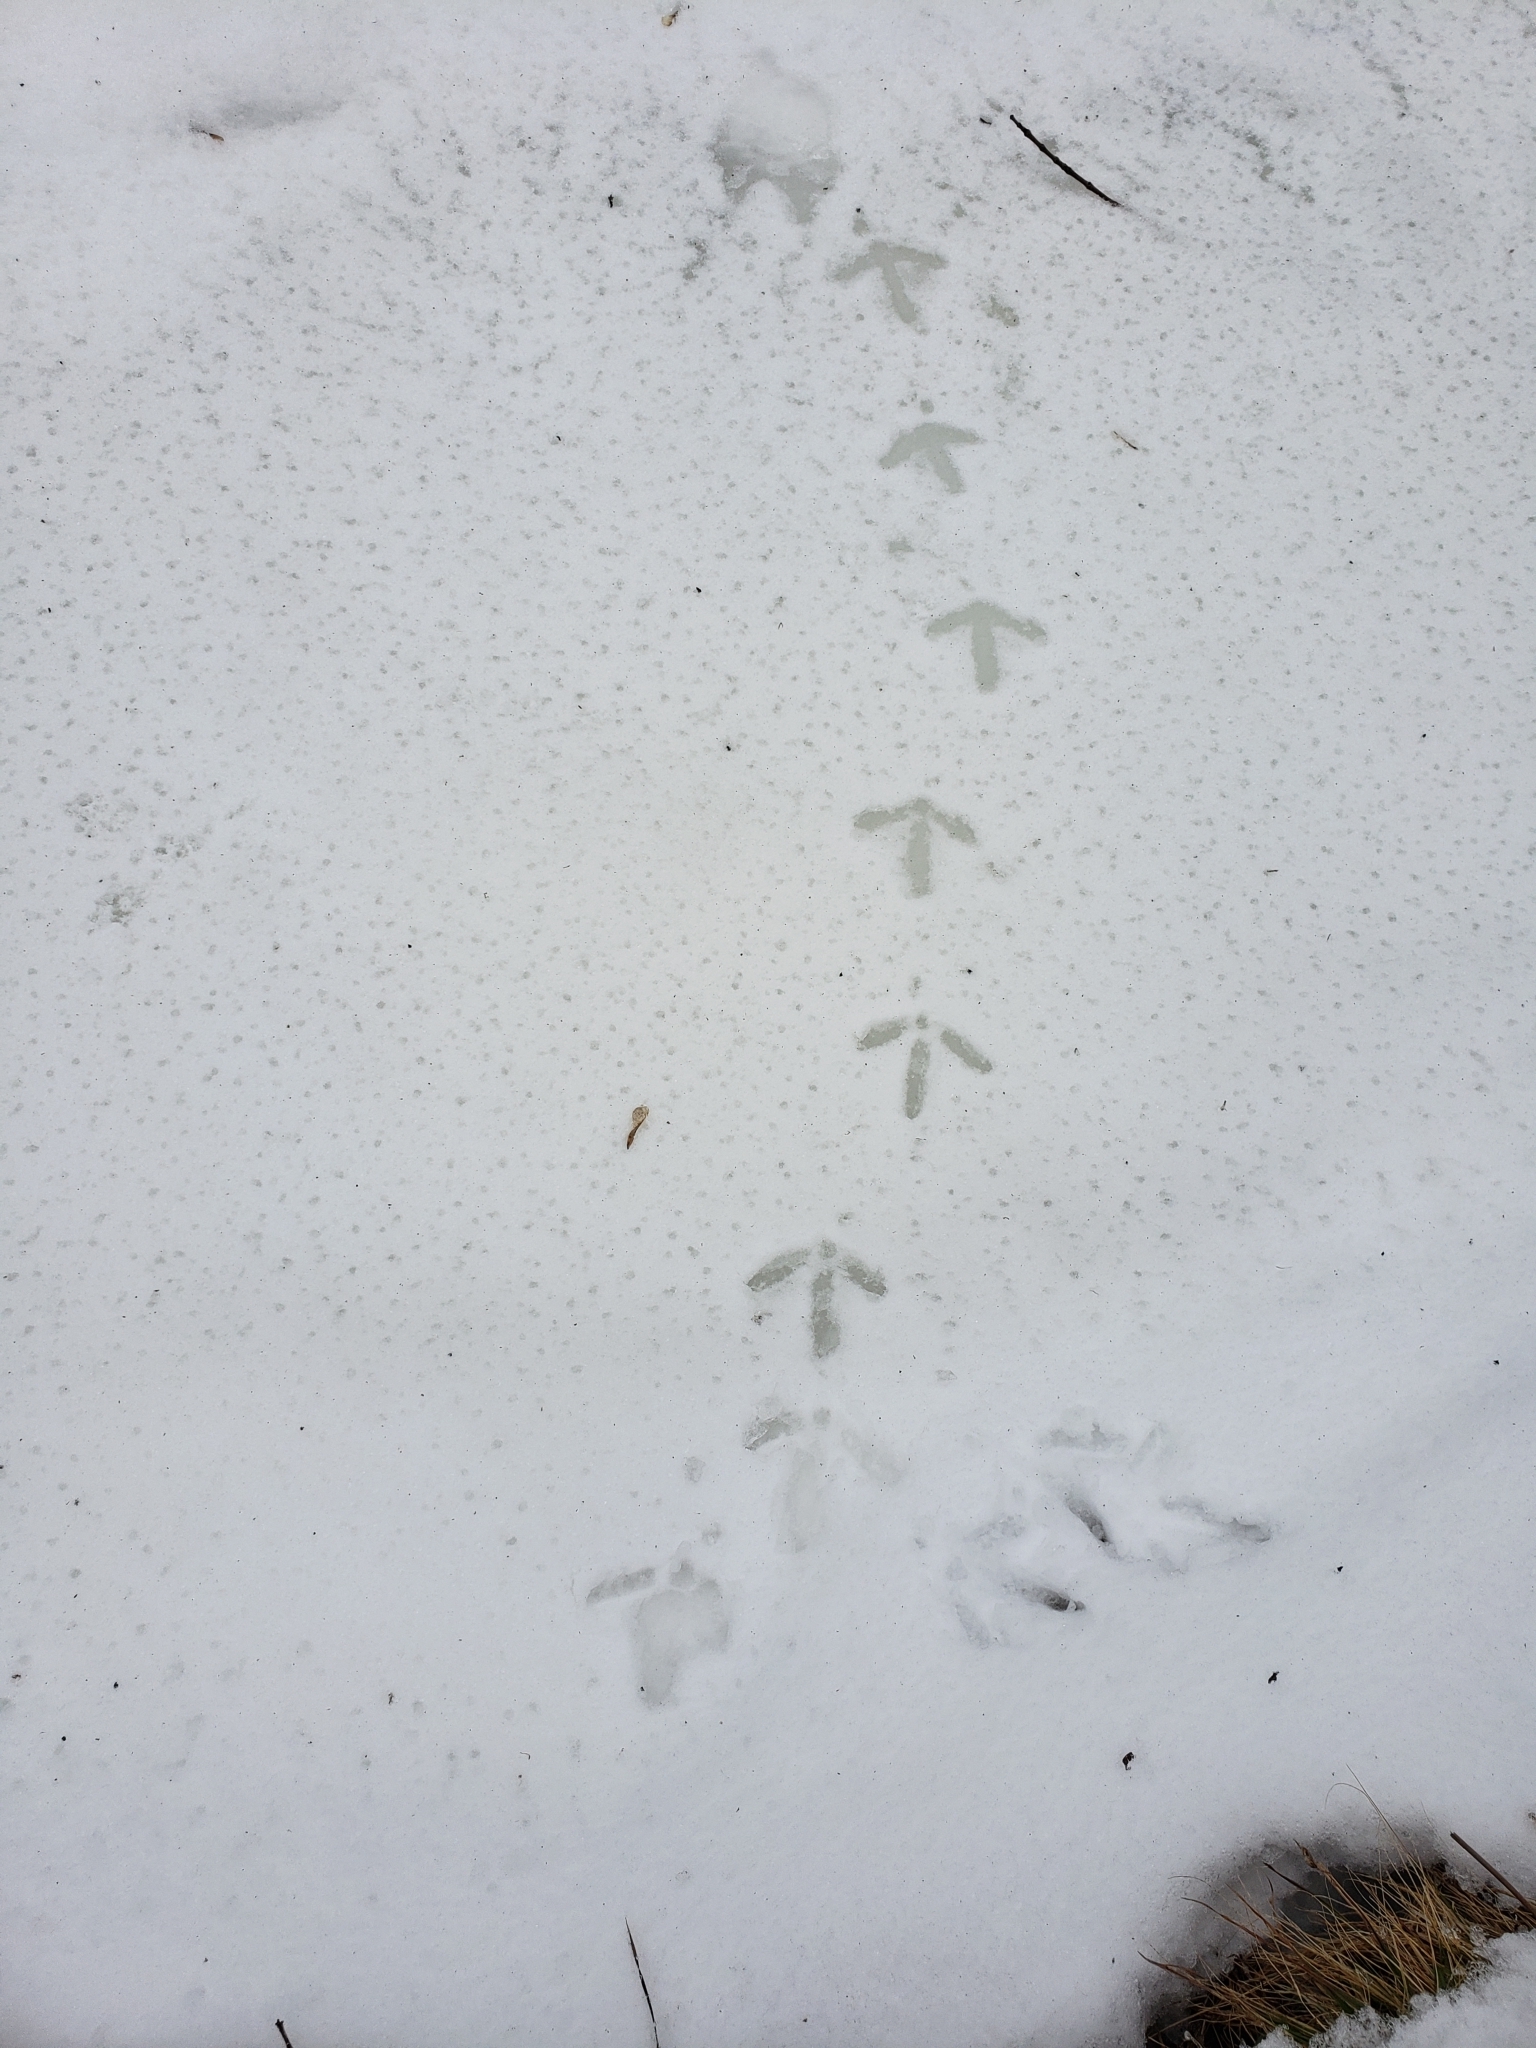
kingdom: Animalia
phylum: Chordata
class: Aves
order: Galliformes
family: Phasianidae
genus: Meleagris
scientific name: Meleagris gallopavo
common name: Wild turkey
